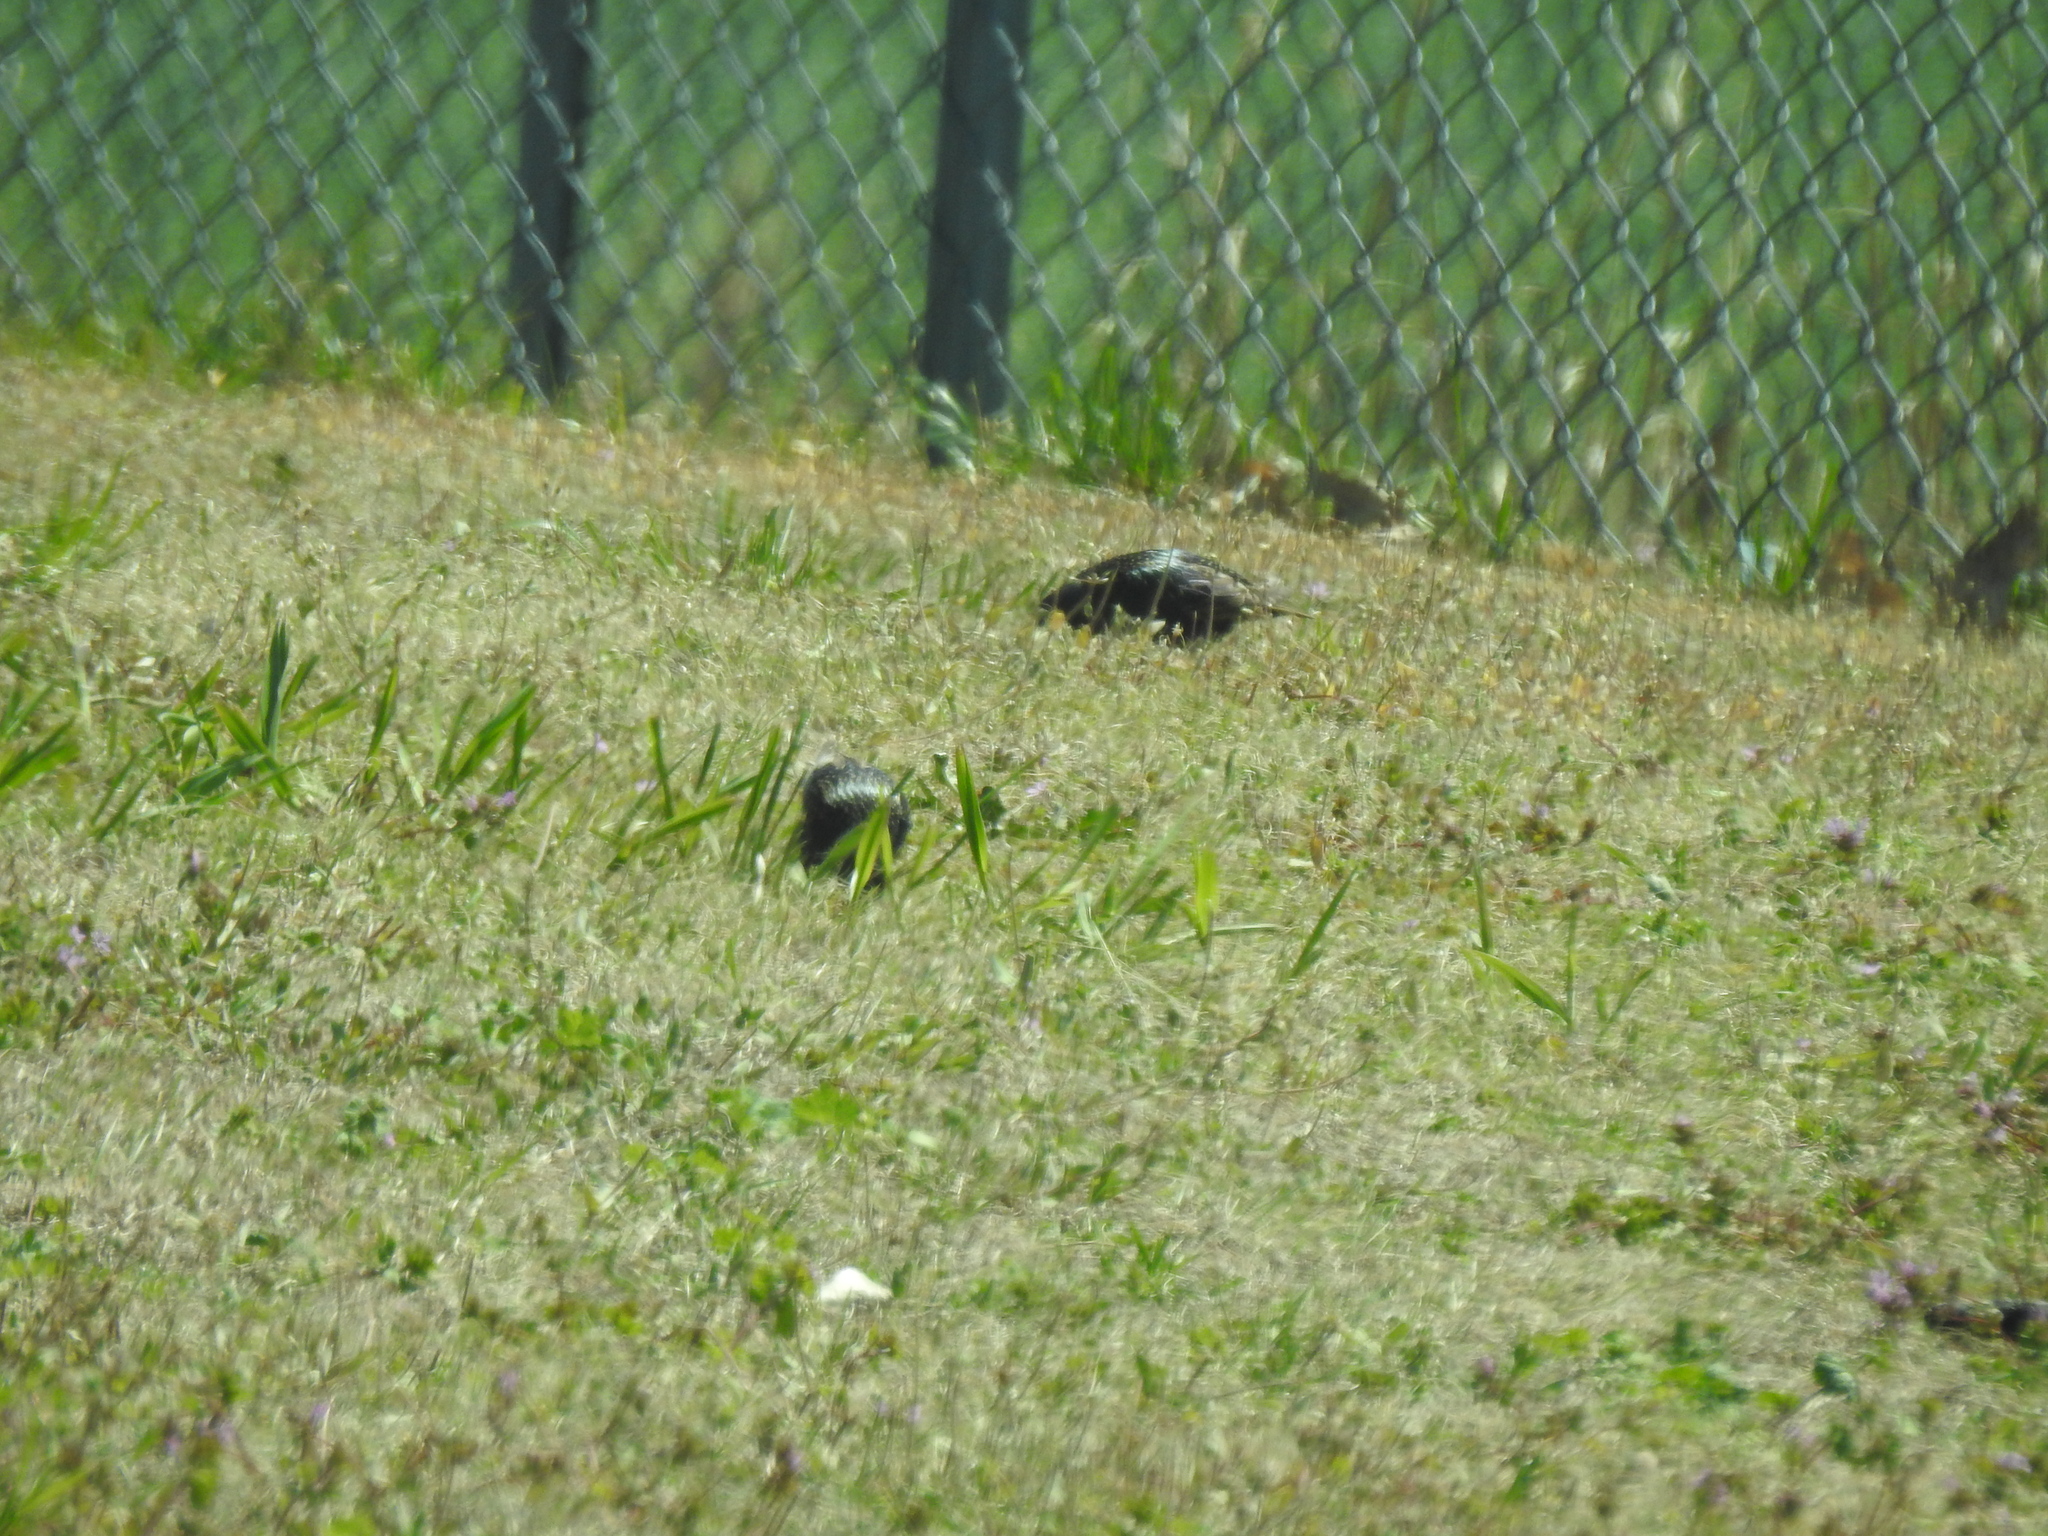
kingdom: Animalia
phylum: Chordata
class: Aves
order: Passeriformes
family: Sturnidae
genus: Sturnus
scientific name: Sturnus vulgaris
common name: Common starling
